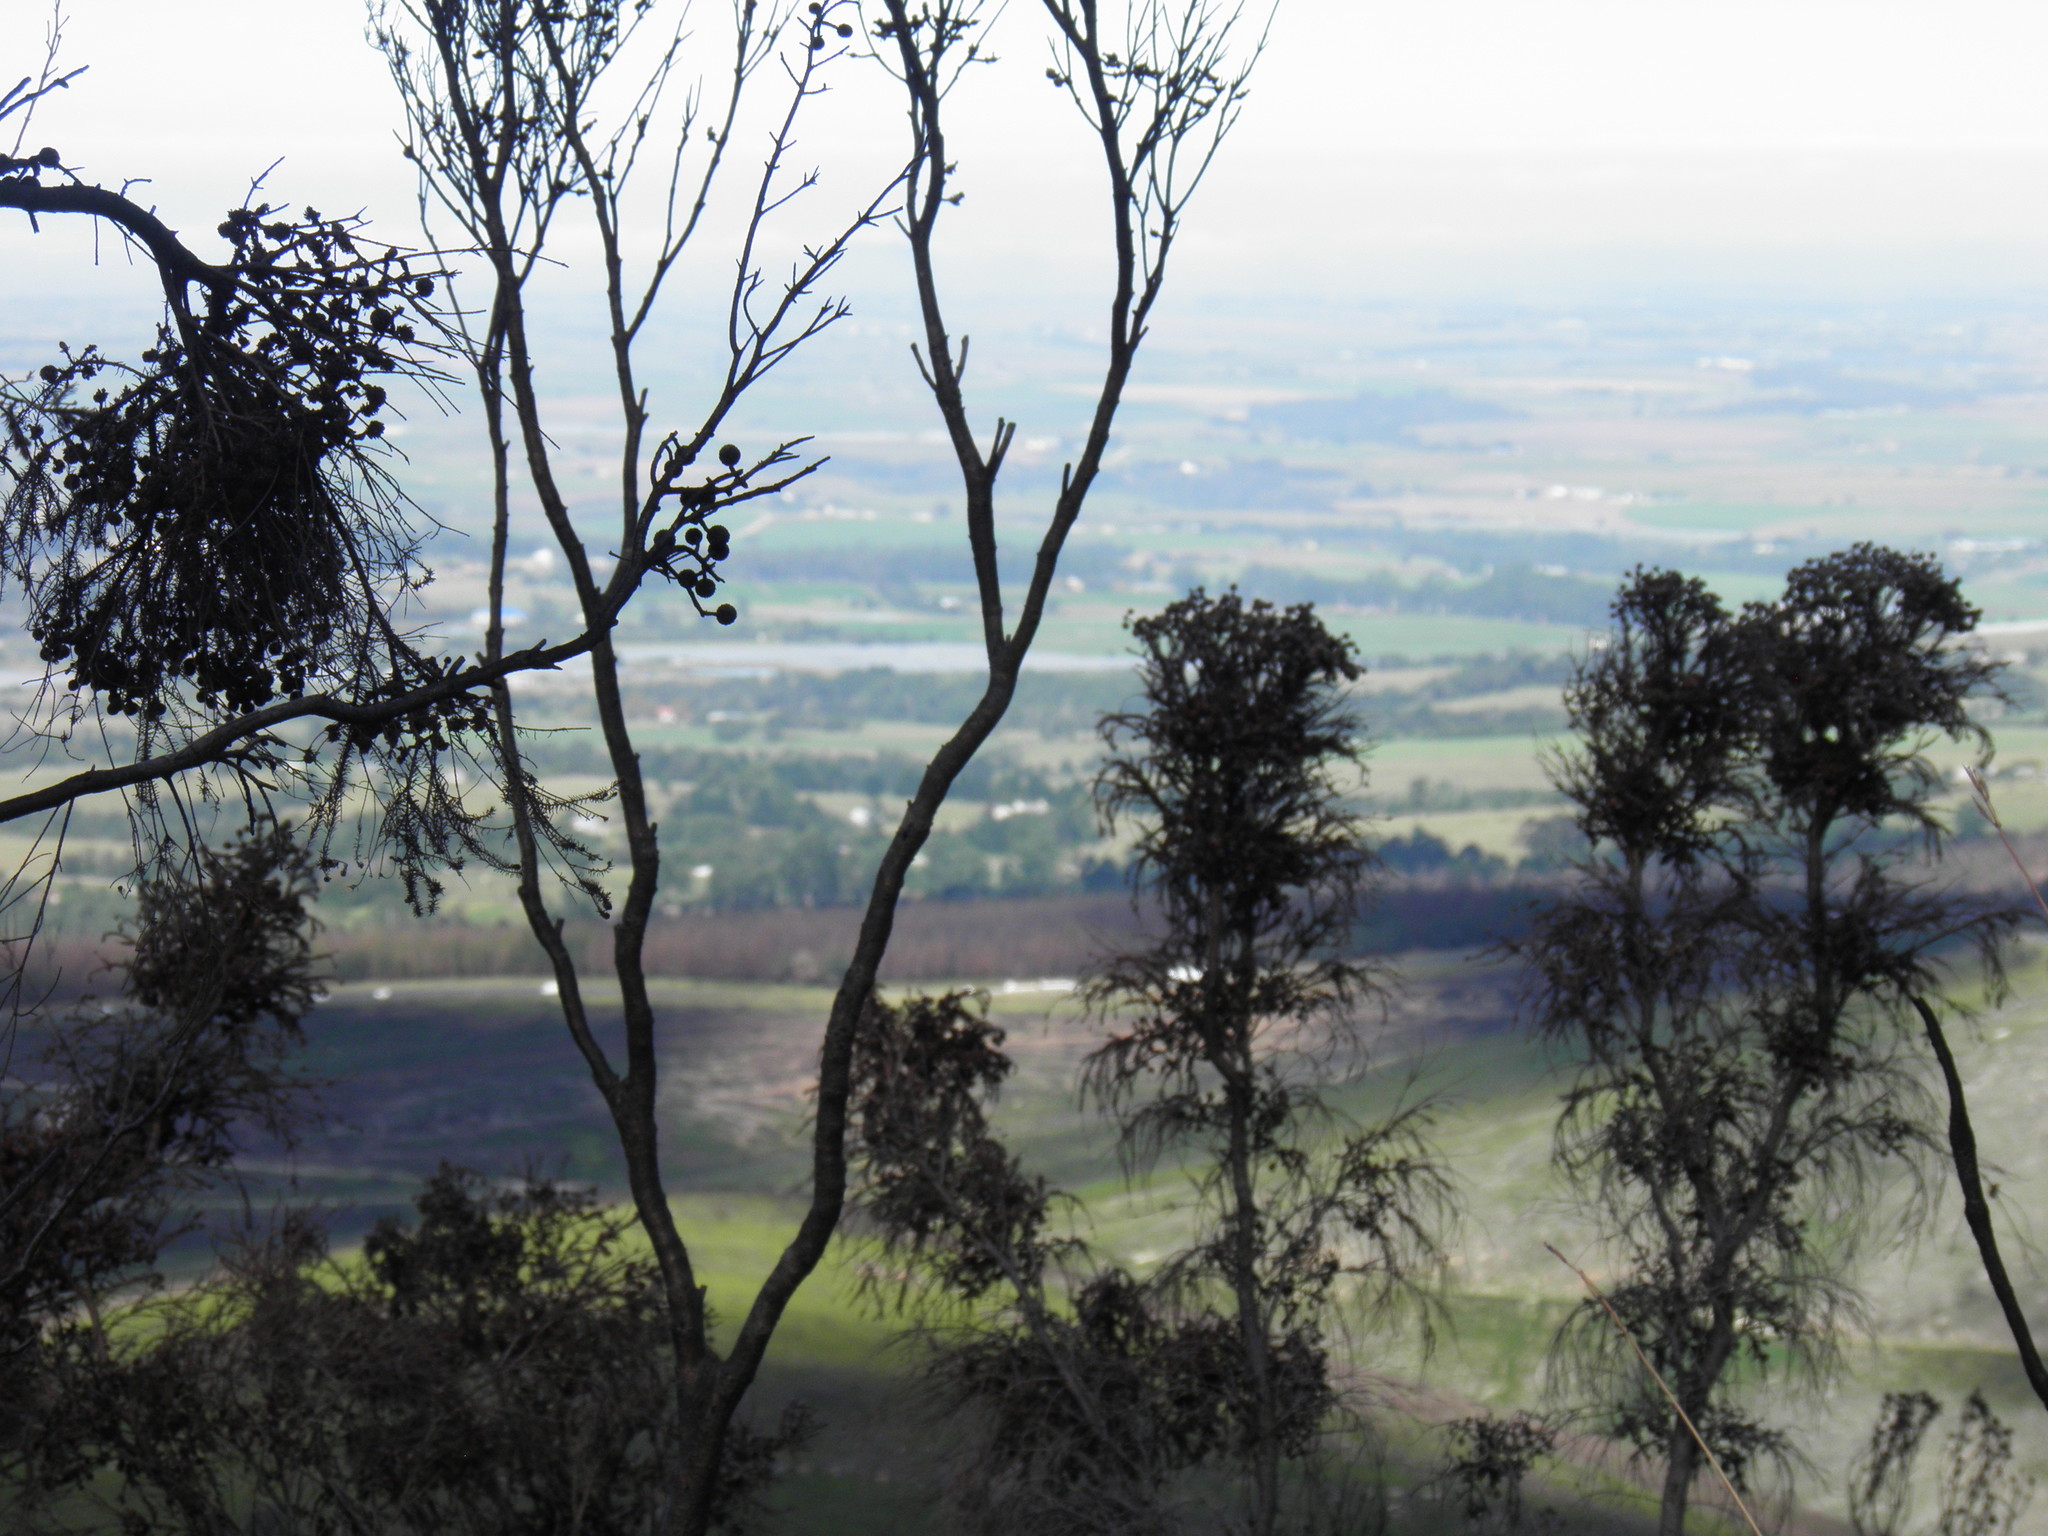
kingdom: Plantae
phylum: Tracheophyta
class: Magnoliopsida
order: Bruniales
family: Bruniaceae
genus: Berzelia
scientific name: Berzelia intermedia
